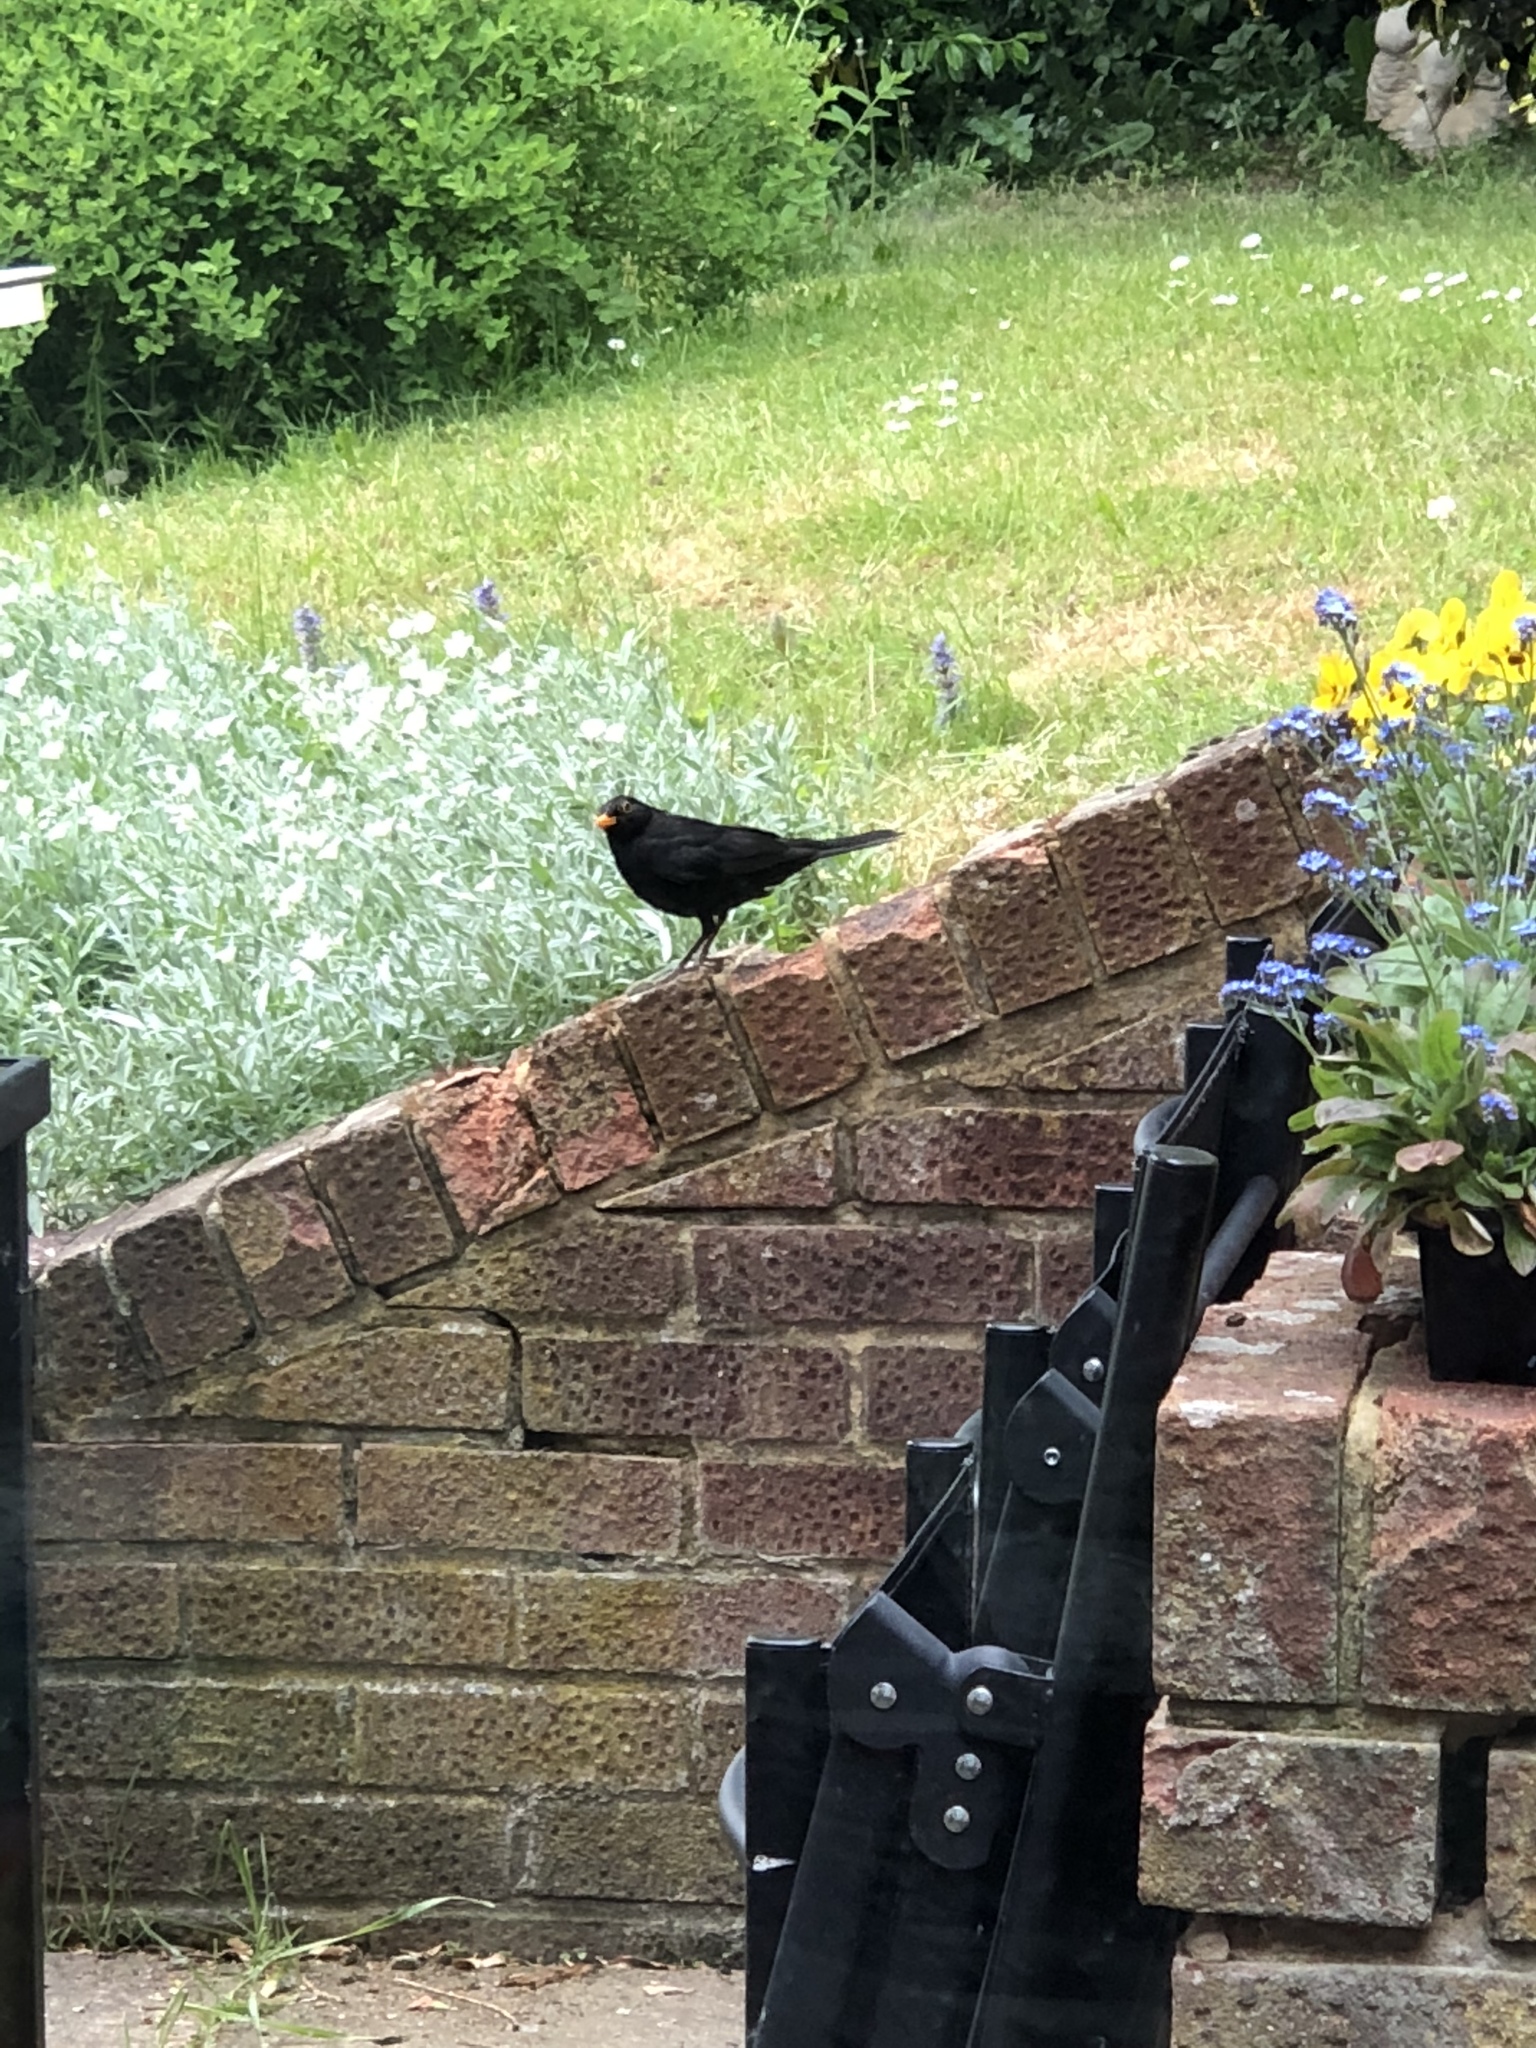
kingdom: Animalia
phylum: Chordata
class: Aves
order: Passeriformes
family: Turdidae
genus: Turdus
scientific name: Turdus merula
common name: Common blackbird
